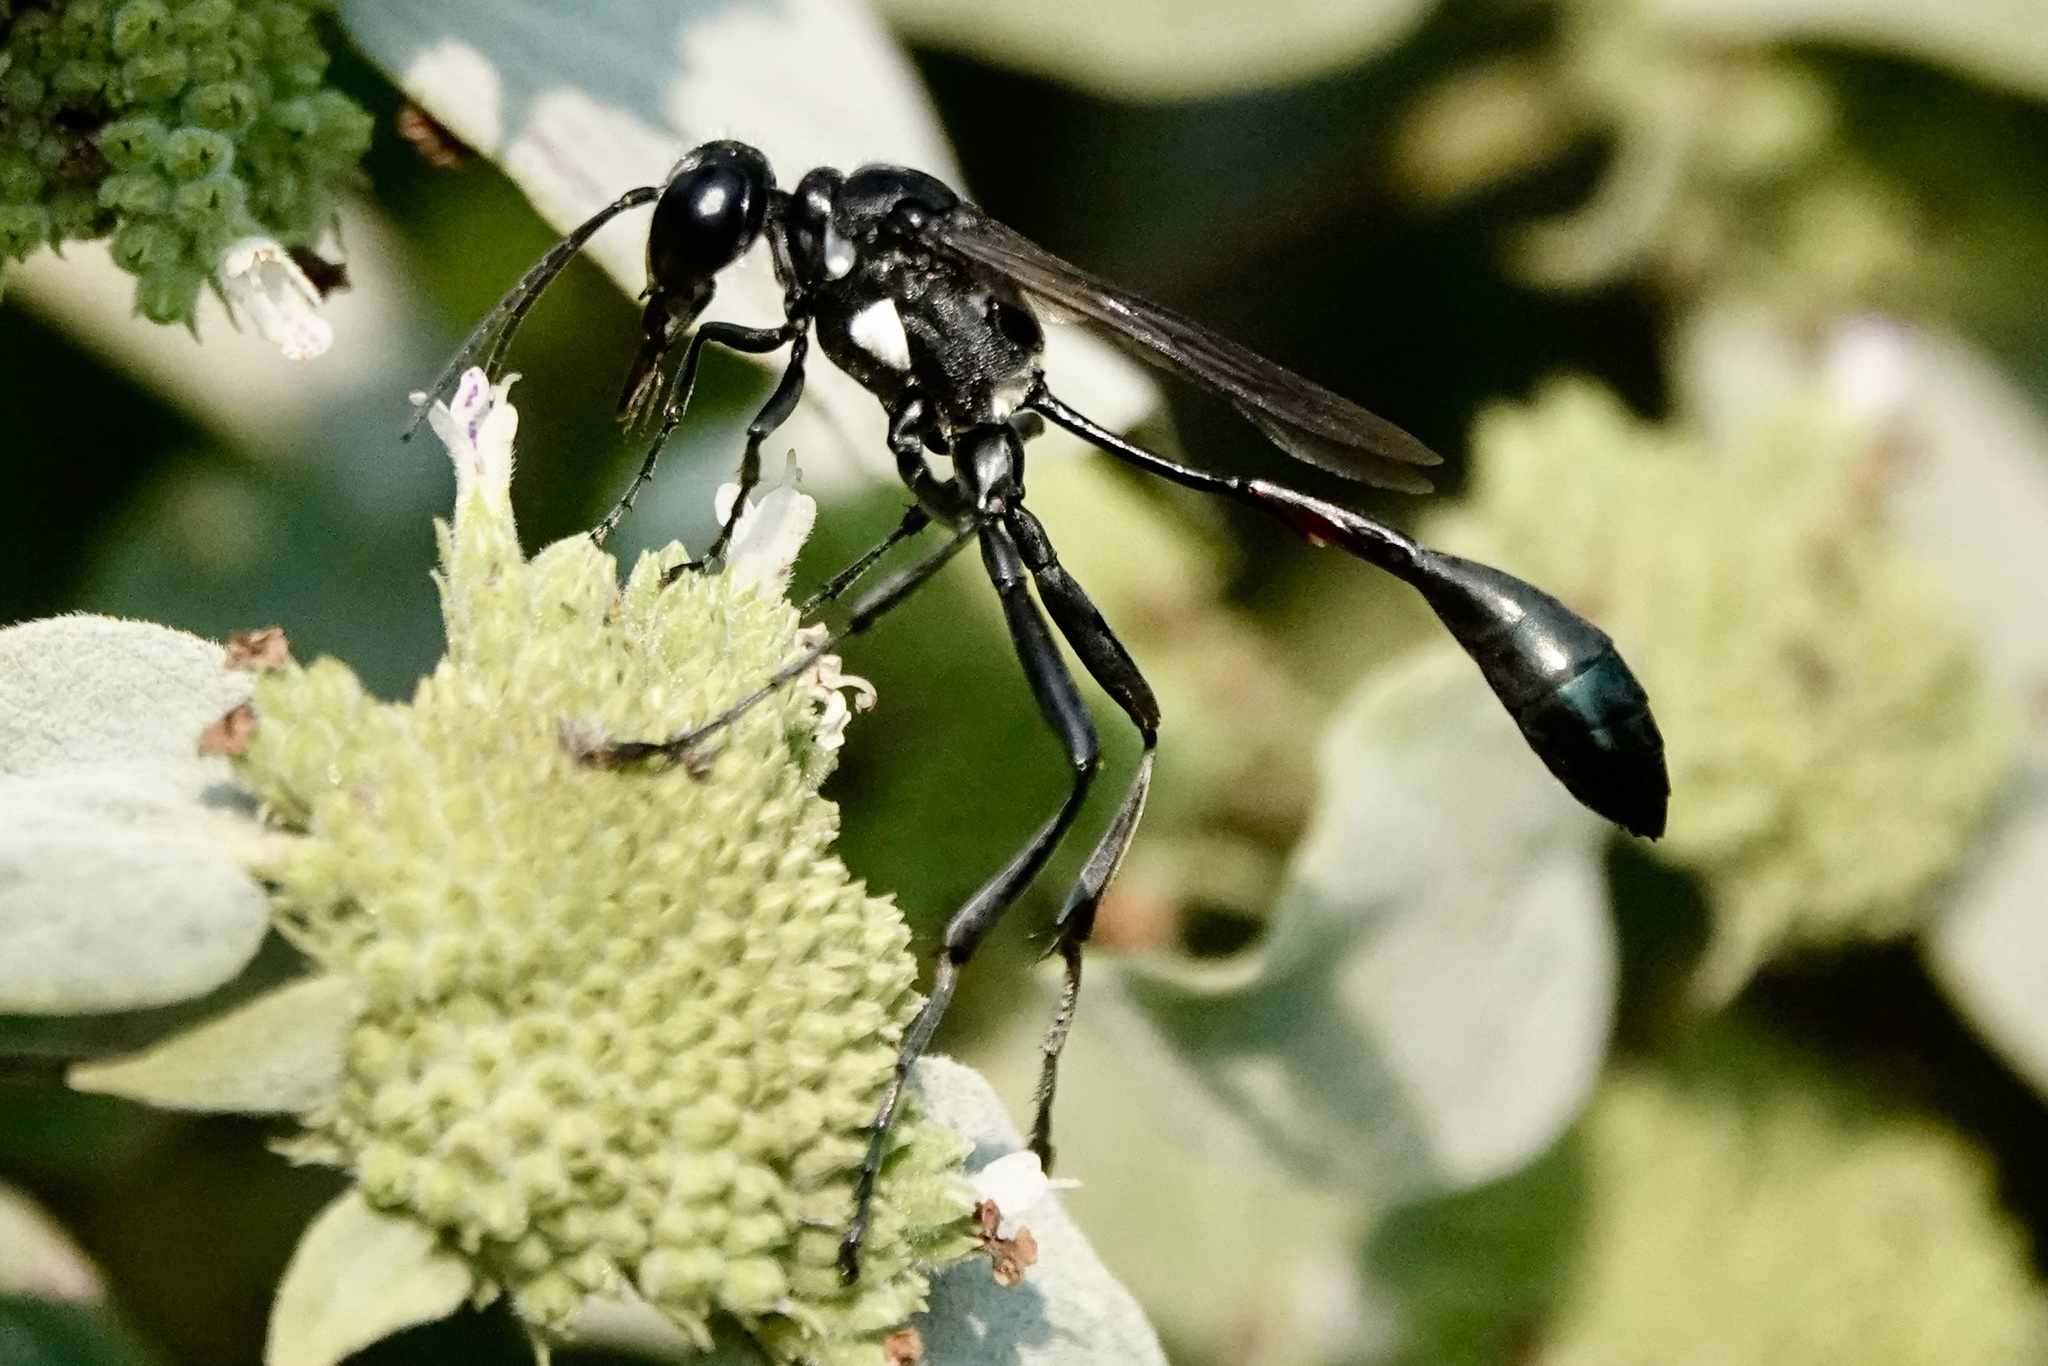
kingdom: Animalia
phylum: Arthropoda
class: Insecta
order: Hymenoptera
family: Sphecidae
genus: Eremnophila
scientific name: Eremnophila aureonotata
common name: Gold-marked thread-waisted wasp
